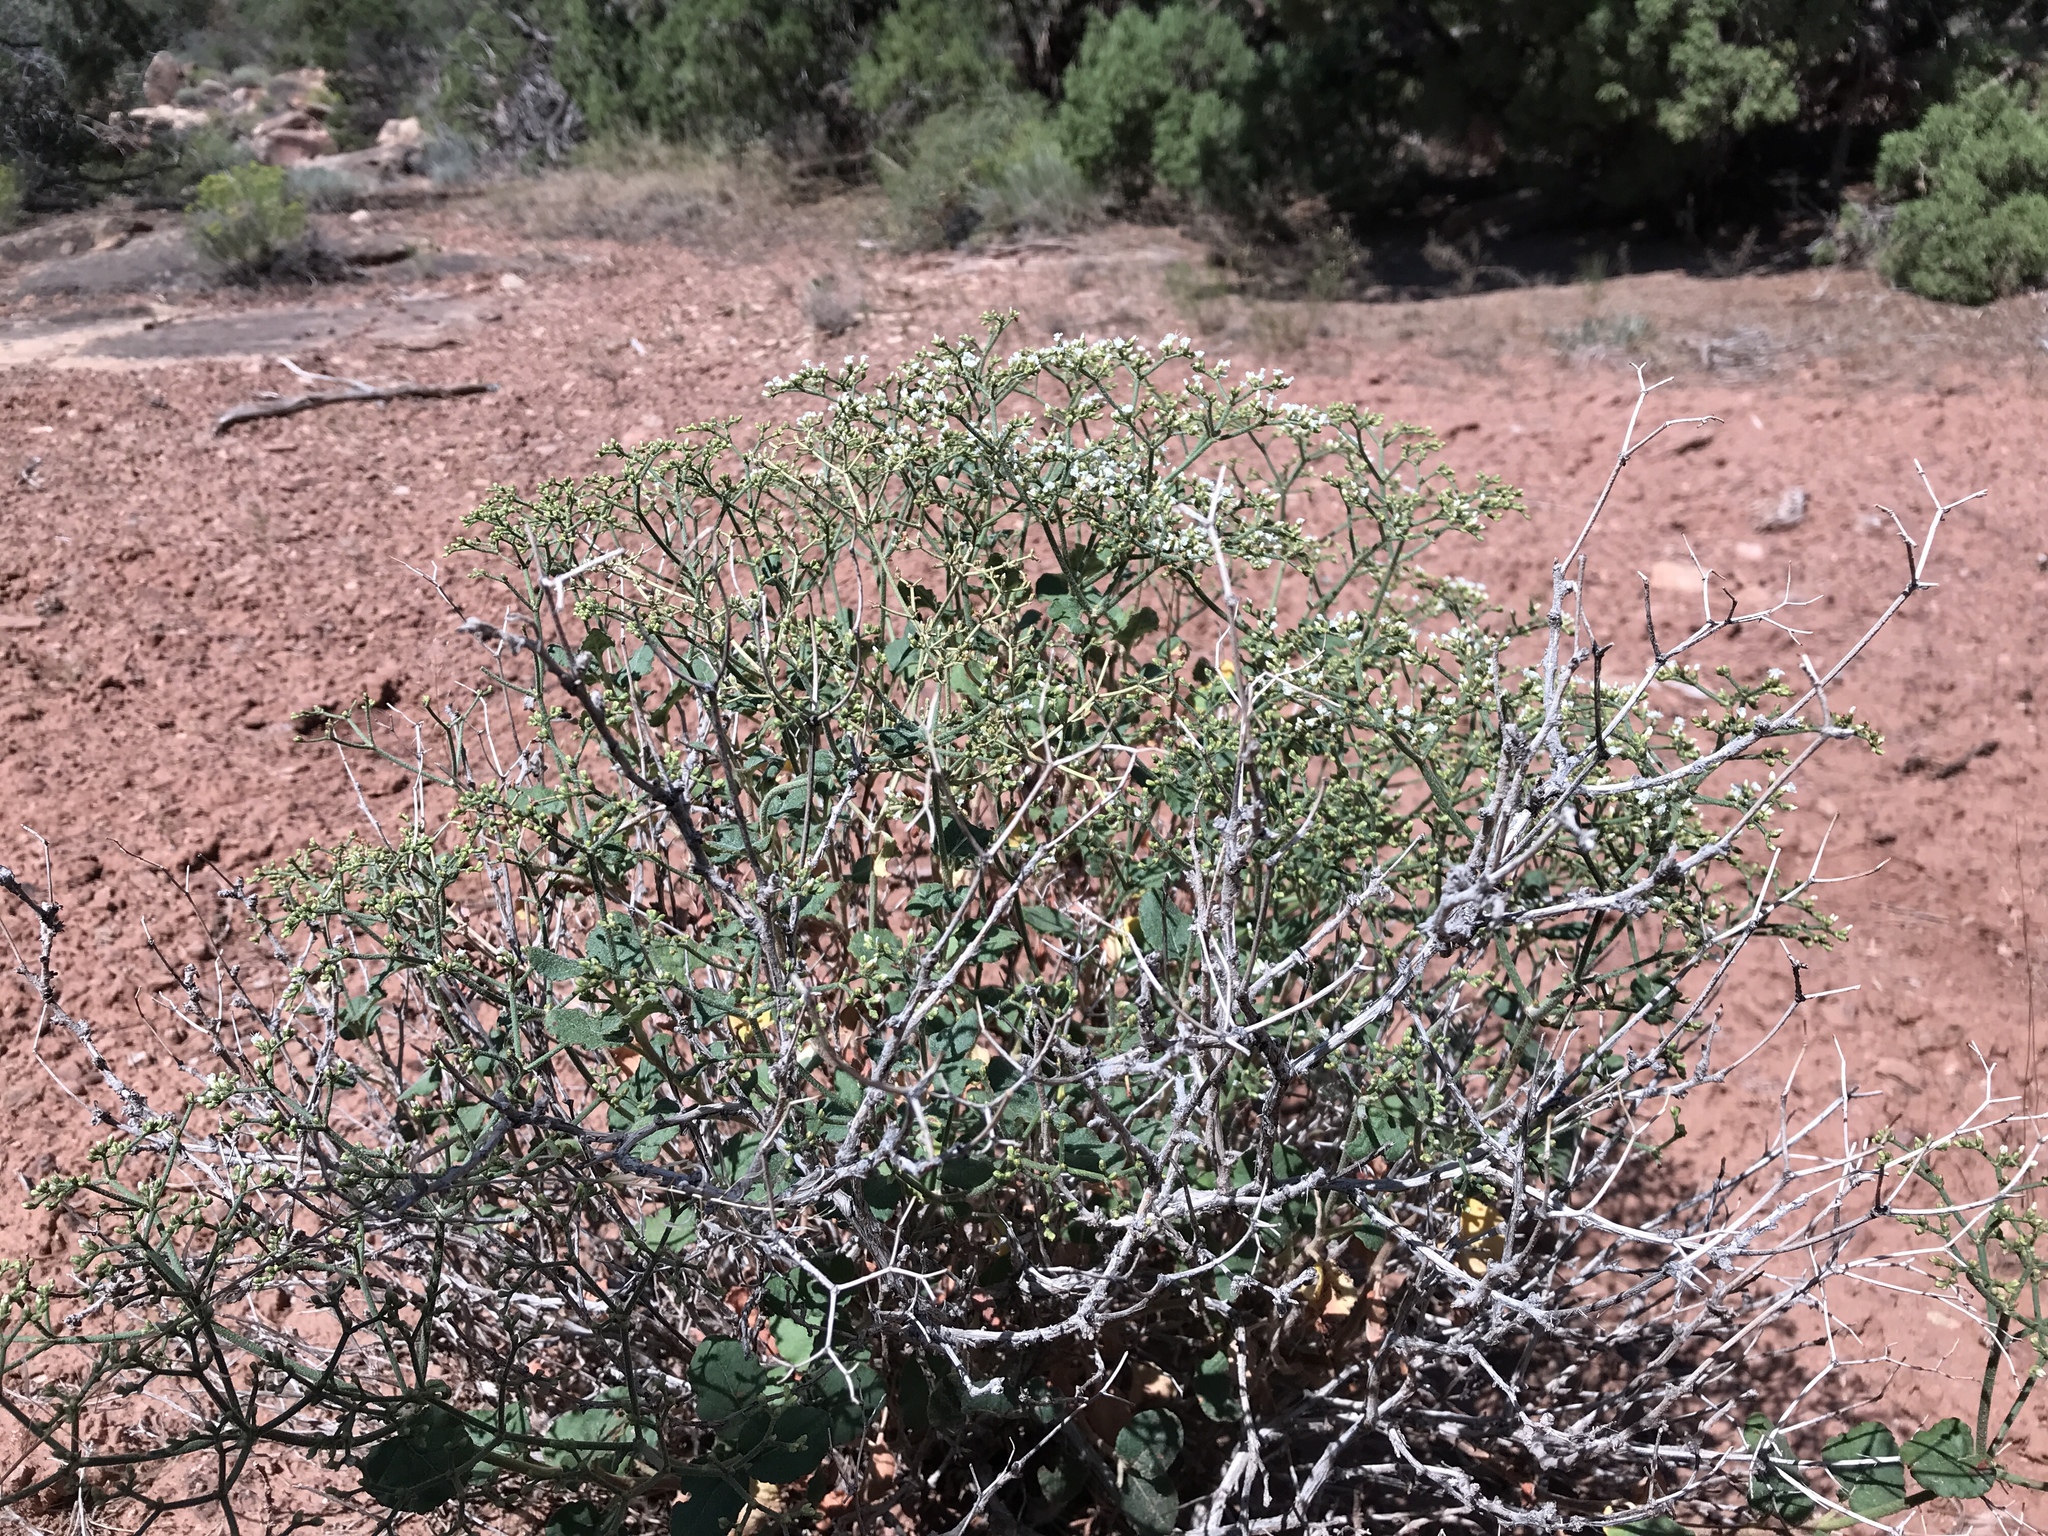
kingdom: Plantae
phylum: Tracheophyta
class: Magnoliopsida
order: Caryophyllales
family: Polygonaceae
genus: Eriogonum
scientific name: Eriogonum corymbosum
